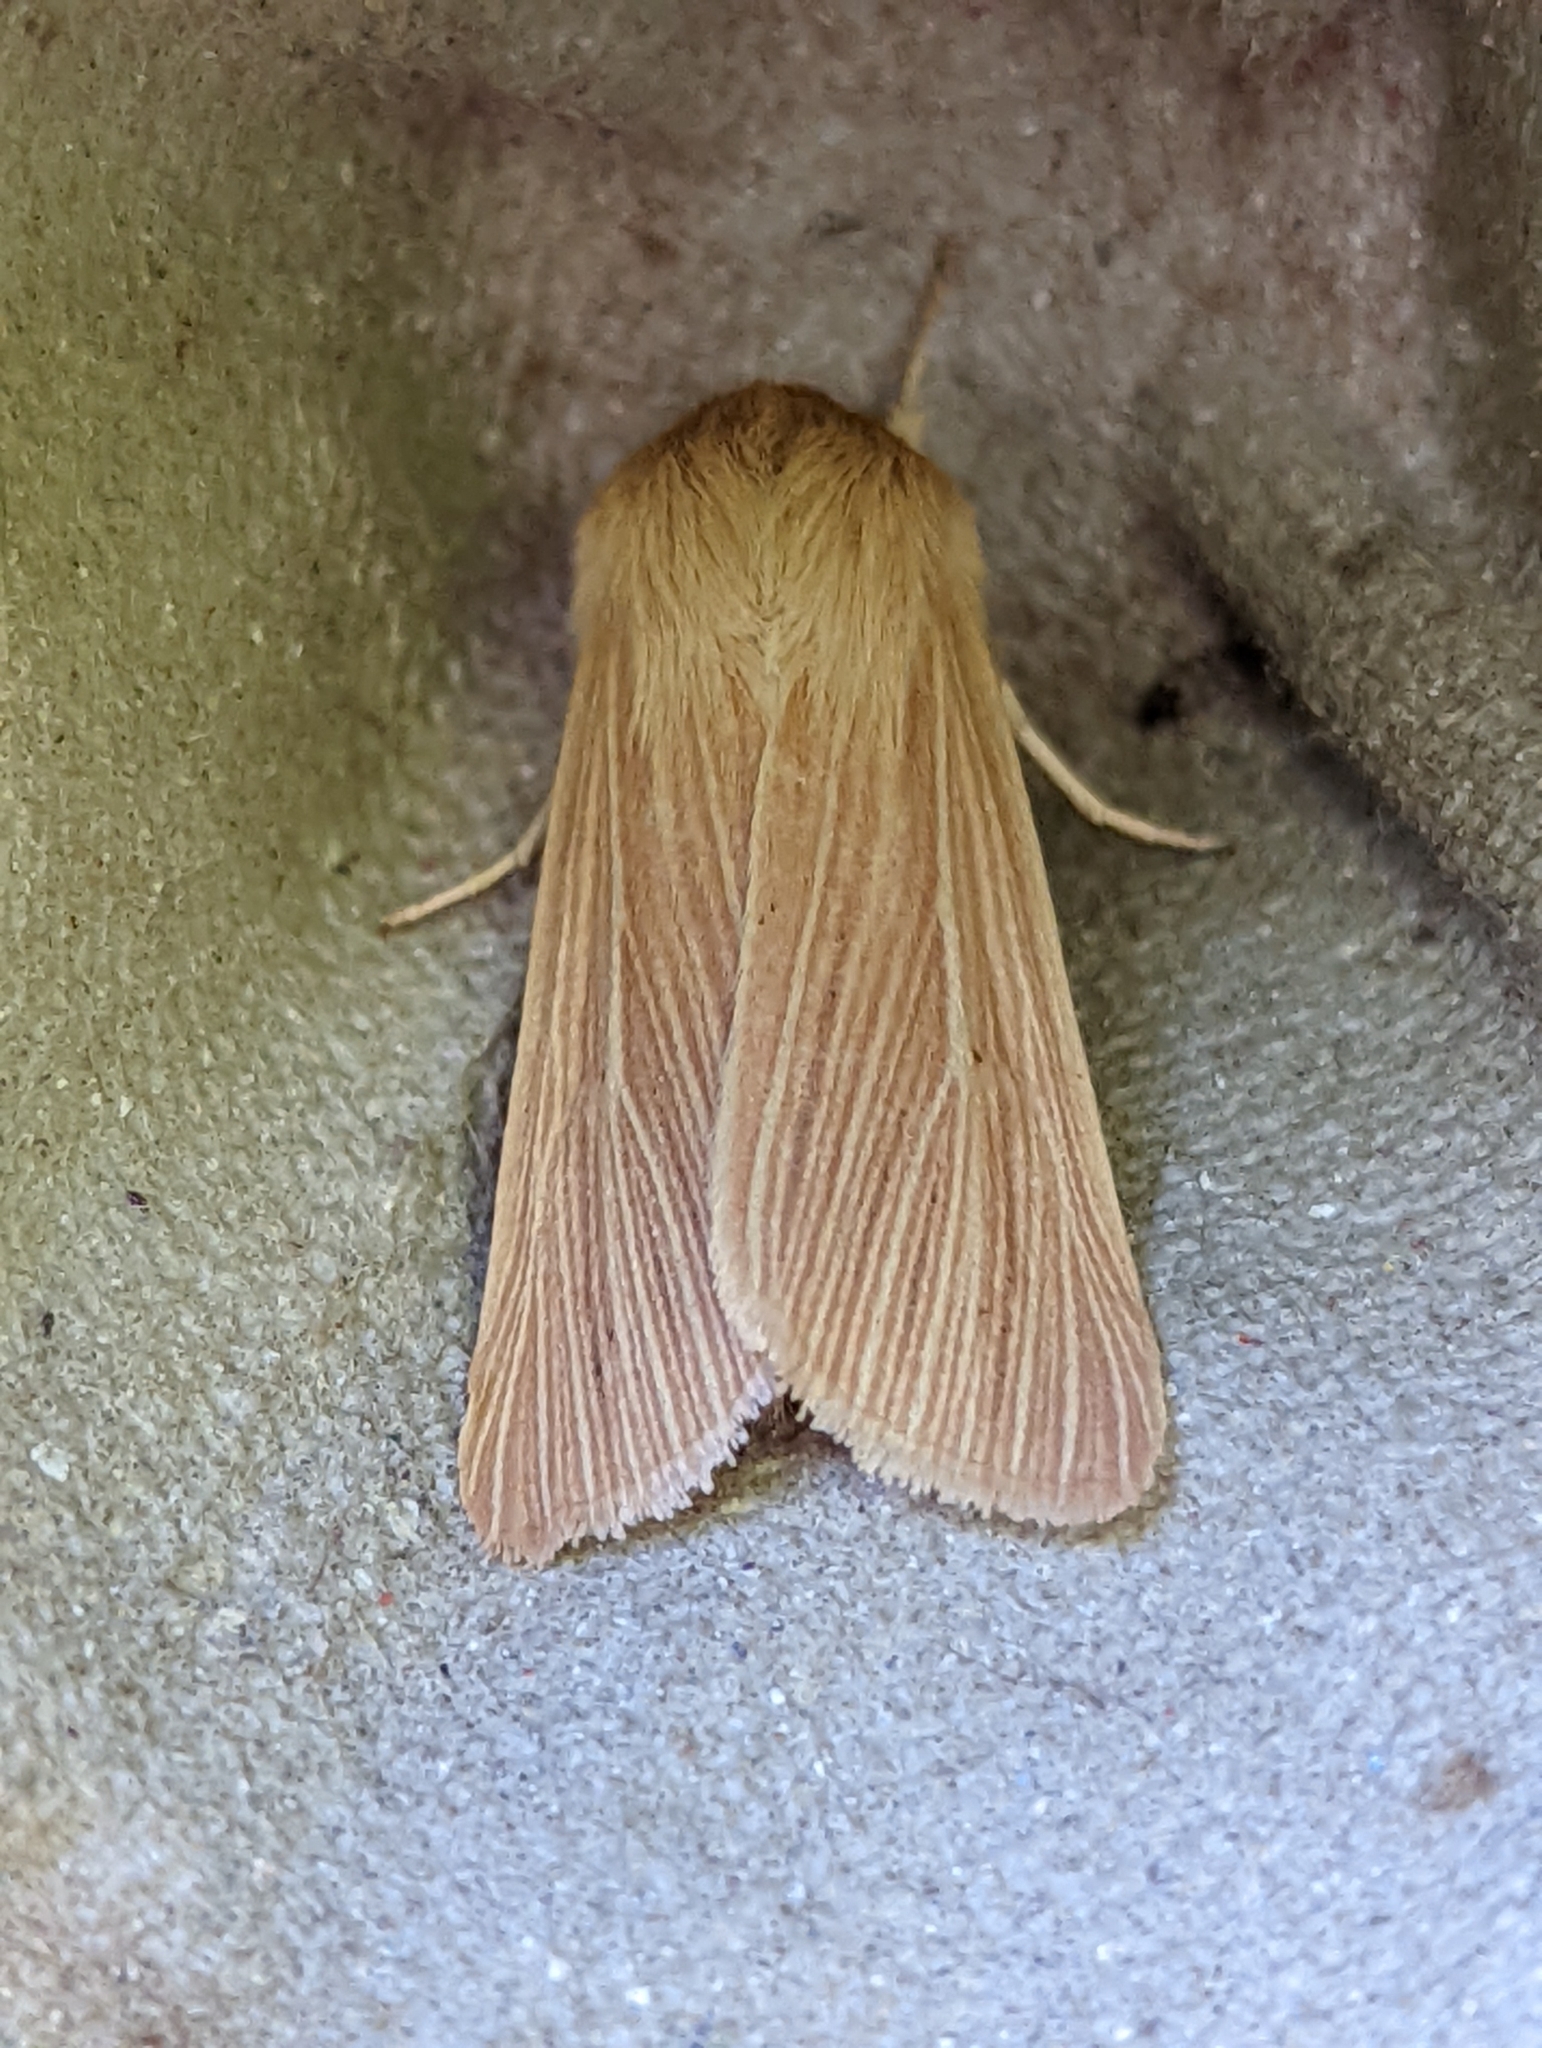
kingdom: Animalia
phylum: Arthropoda
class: Insecta
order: Lepidoptera
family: Noctuidae
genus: Mythimna
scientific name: Mythimna pallens
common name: Common wainscot
